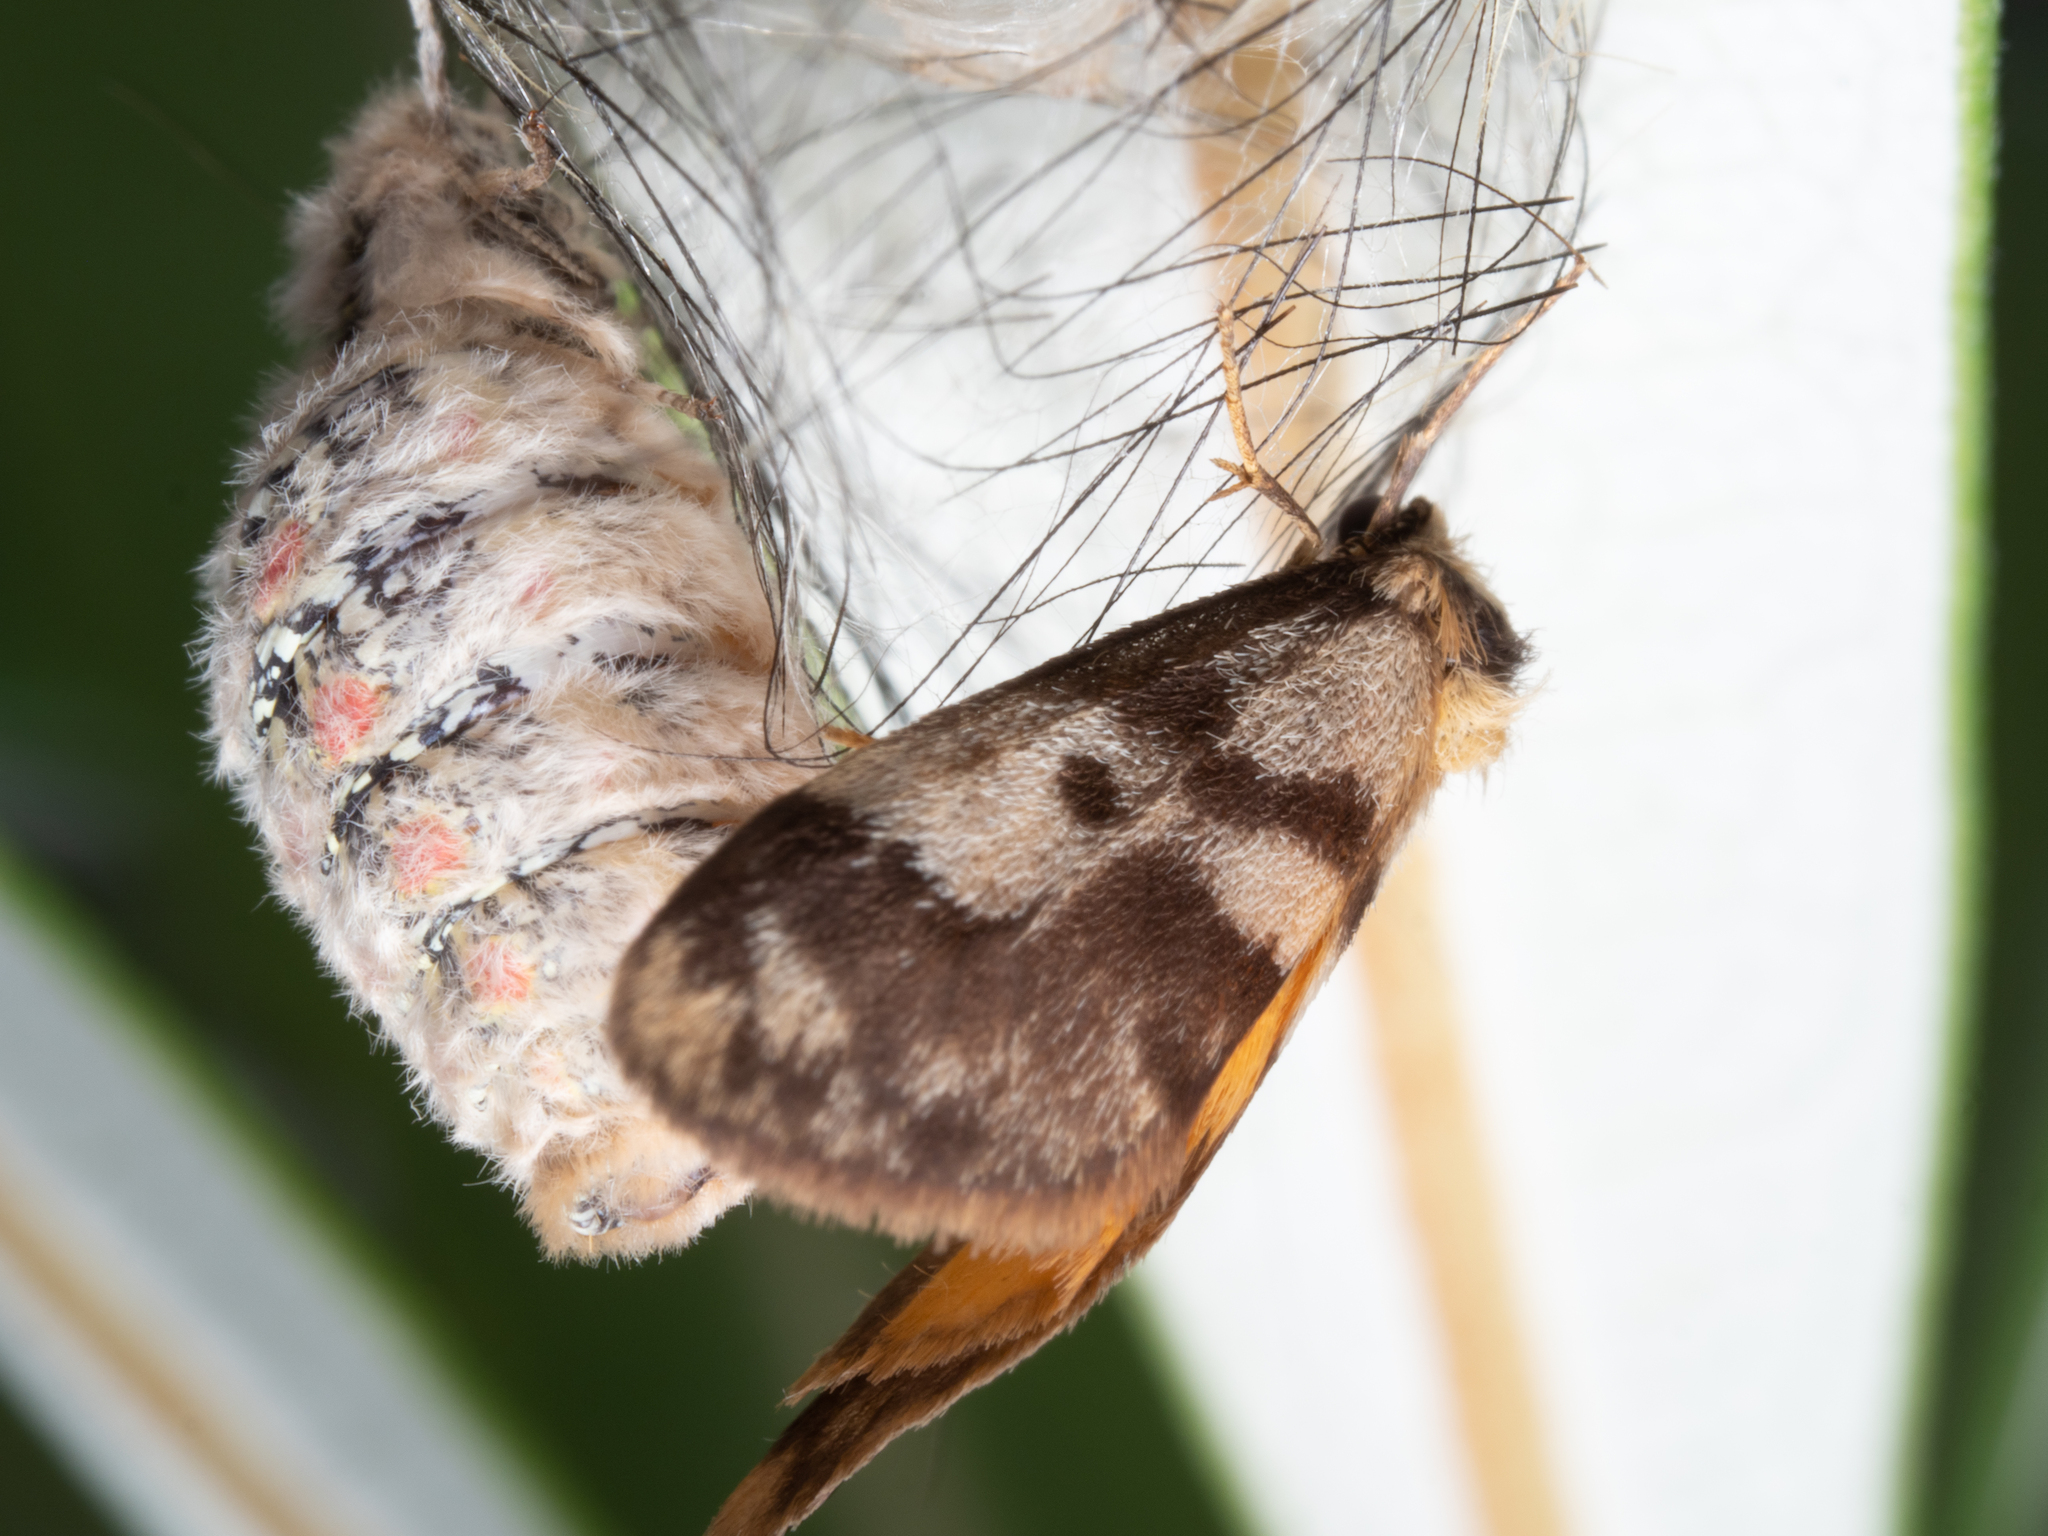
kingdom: Animalia
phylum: Arthropoda
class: Insecta
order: Lepidoptera
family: Erebidae
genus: Anestia
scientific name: Anestia
